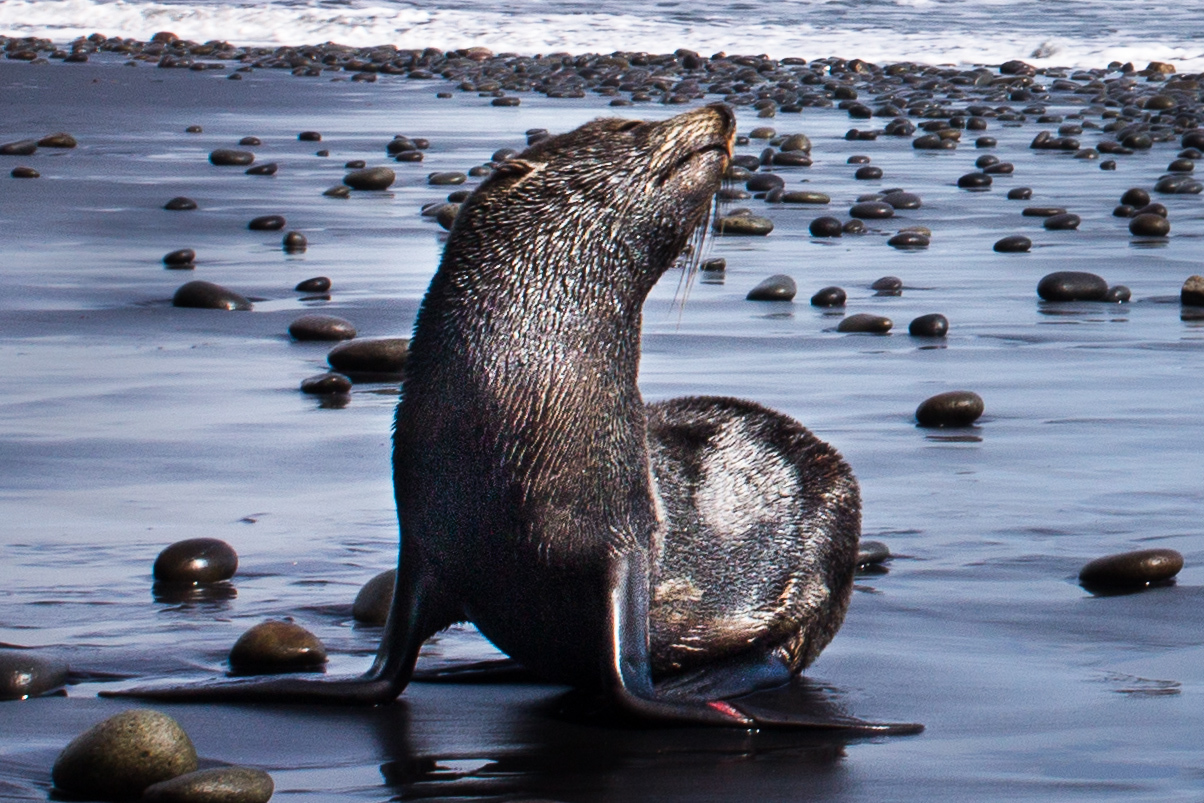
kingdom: Animalia
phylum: Chordata
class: Mammalia
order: Carnivora
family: Otariidae
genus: Arctocephalus
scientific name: Arctocephalus forsteri
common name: New zealand fur seal
